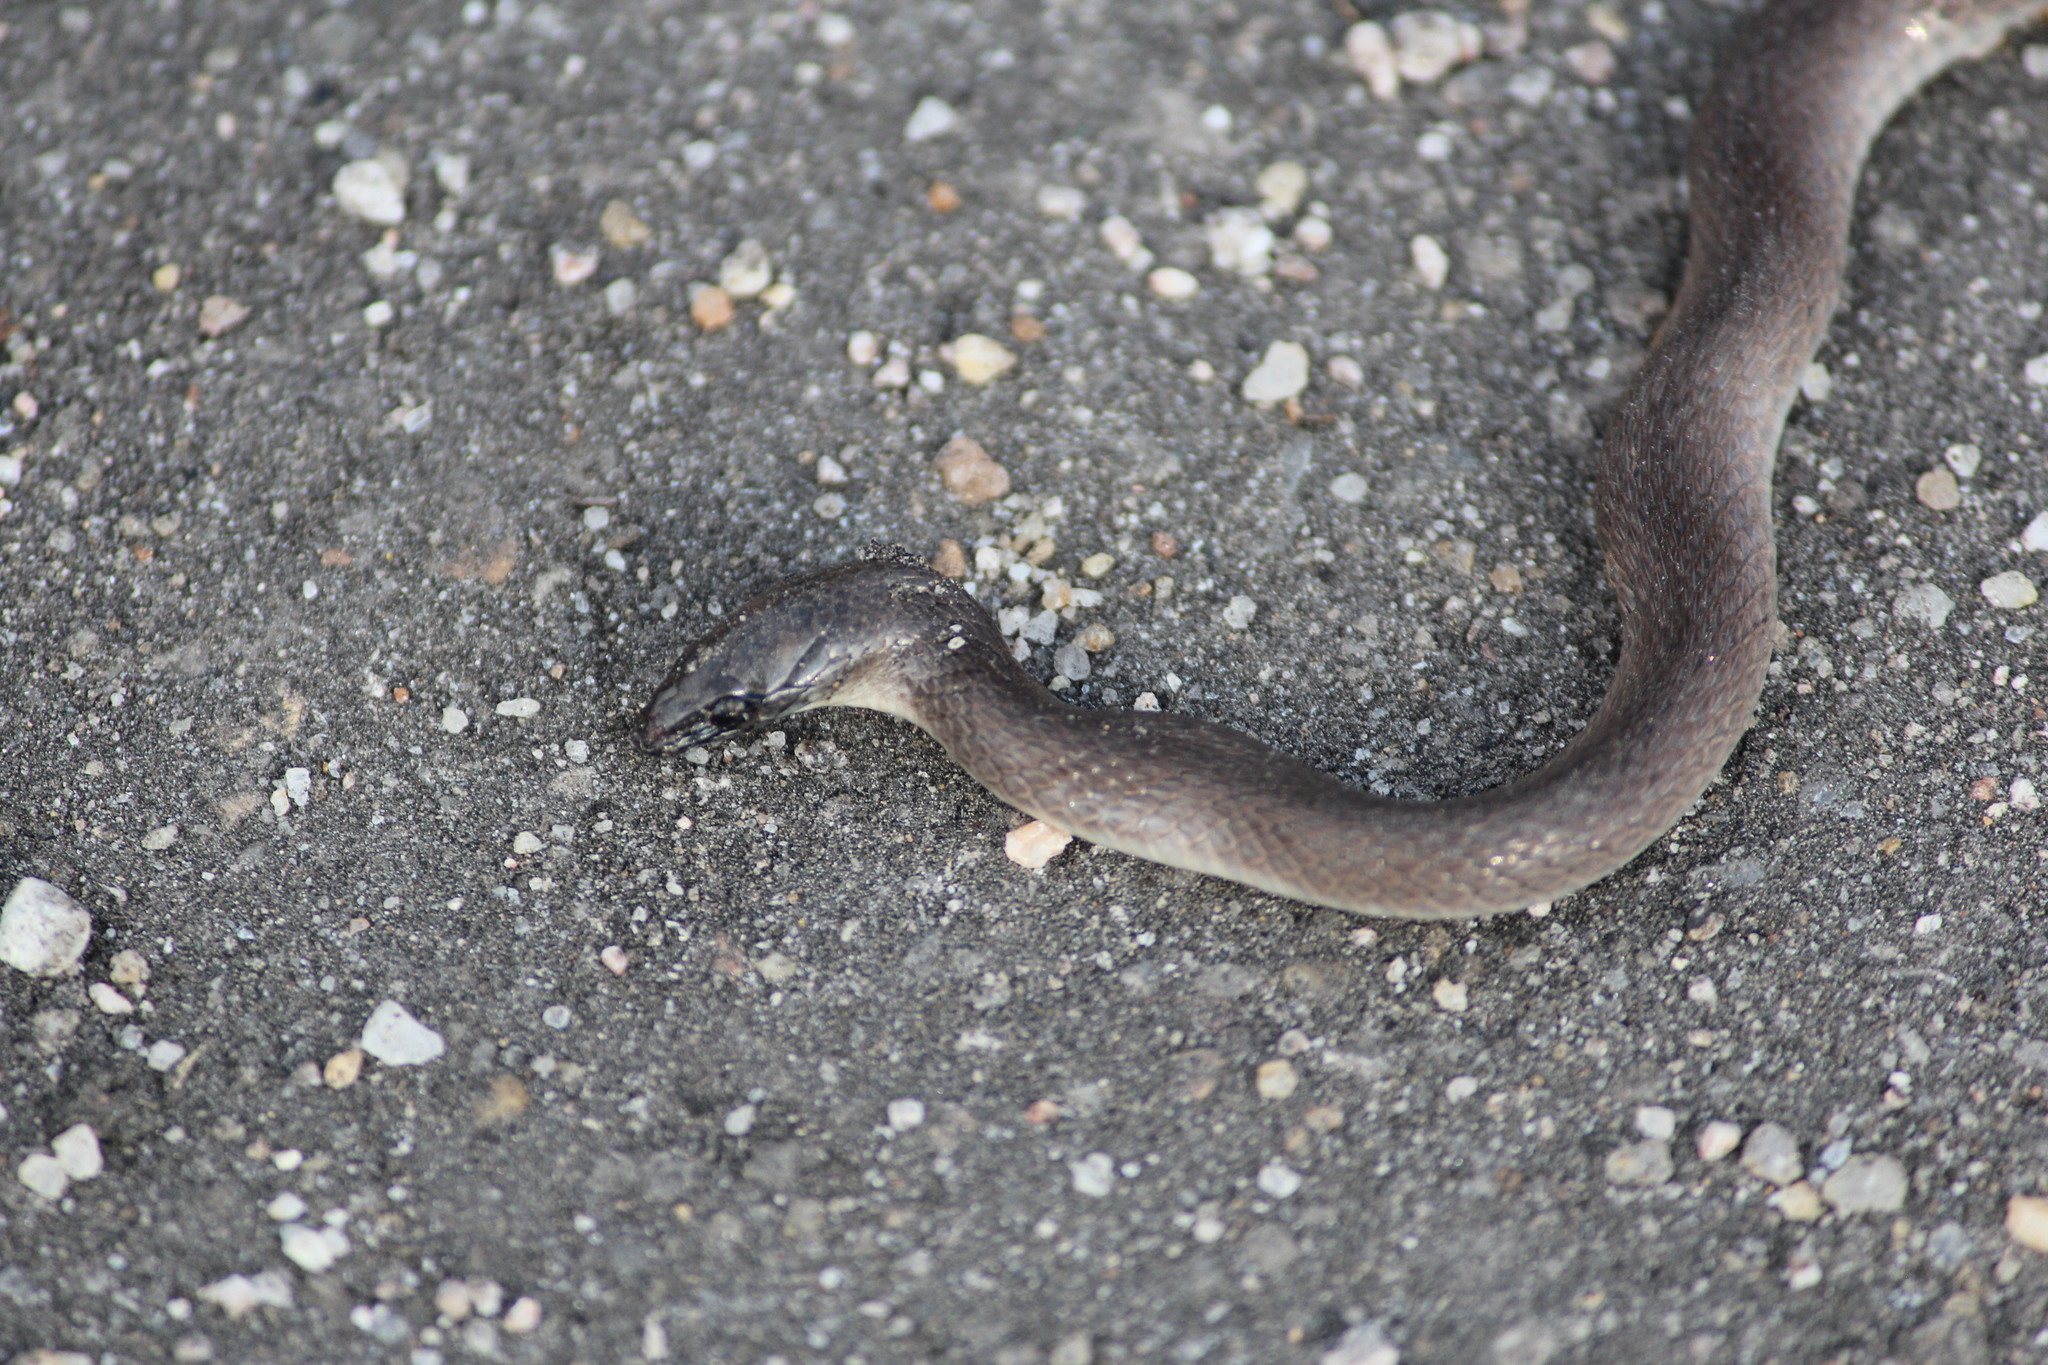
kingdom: Animalia
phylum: Chordata
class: Squamata
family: Colubridae
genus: Haldea
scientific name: Haldea striatula
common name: Rough earth snake
